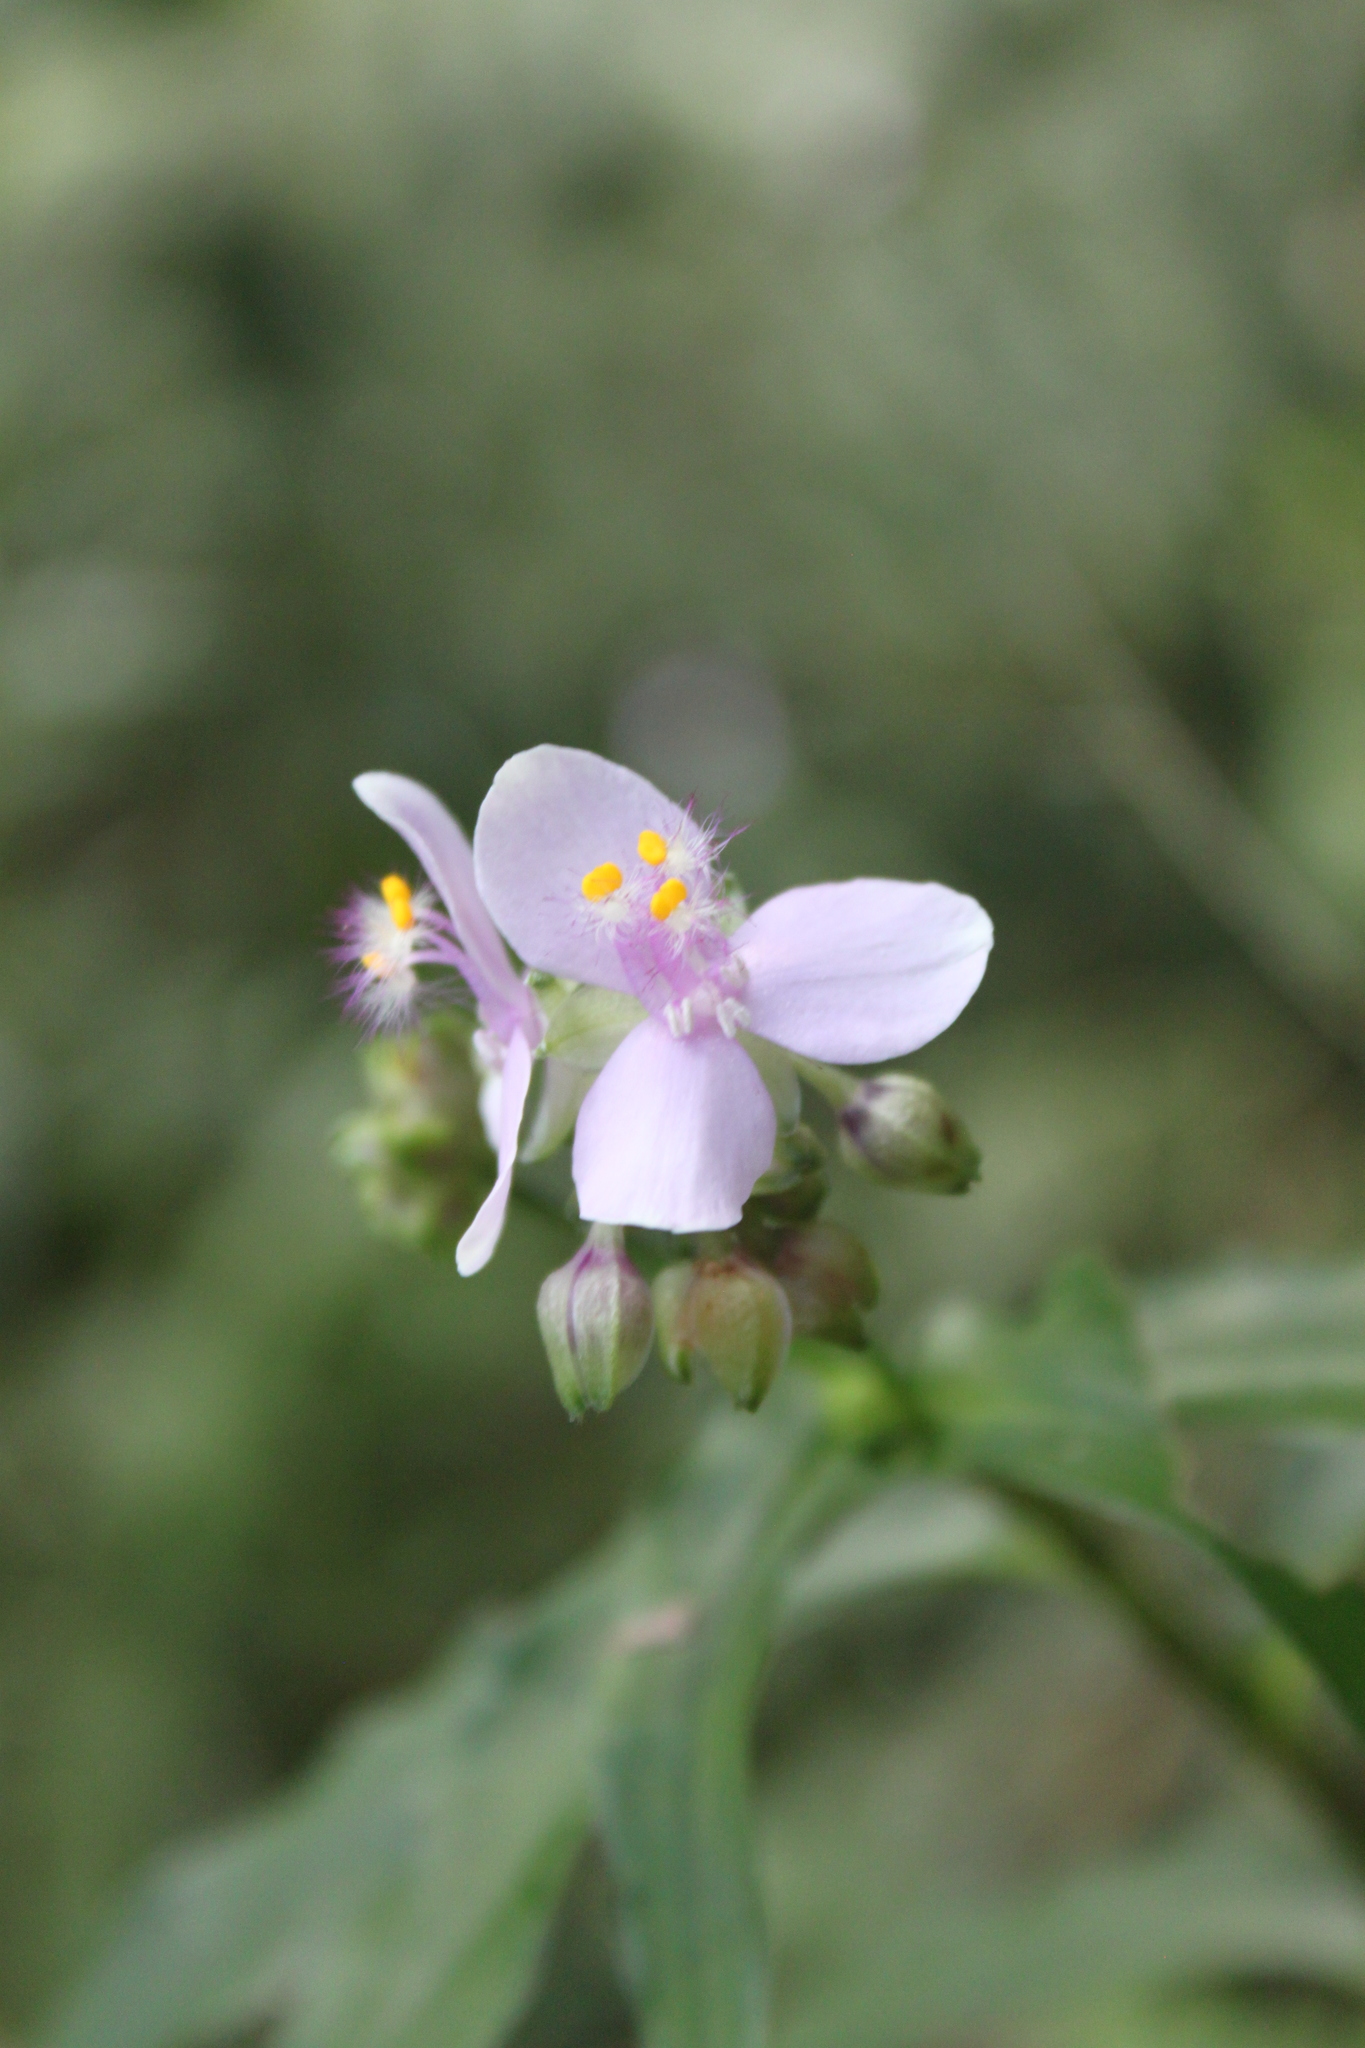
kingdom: Plantae
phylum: Tracheophyta
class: Liliopsida
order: Commelinales
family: Commelinaceae
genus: Callisia
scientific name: Callisia diuretica
